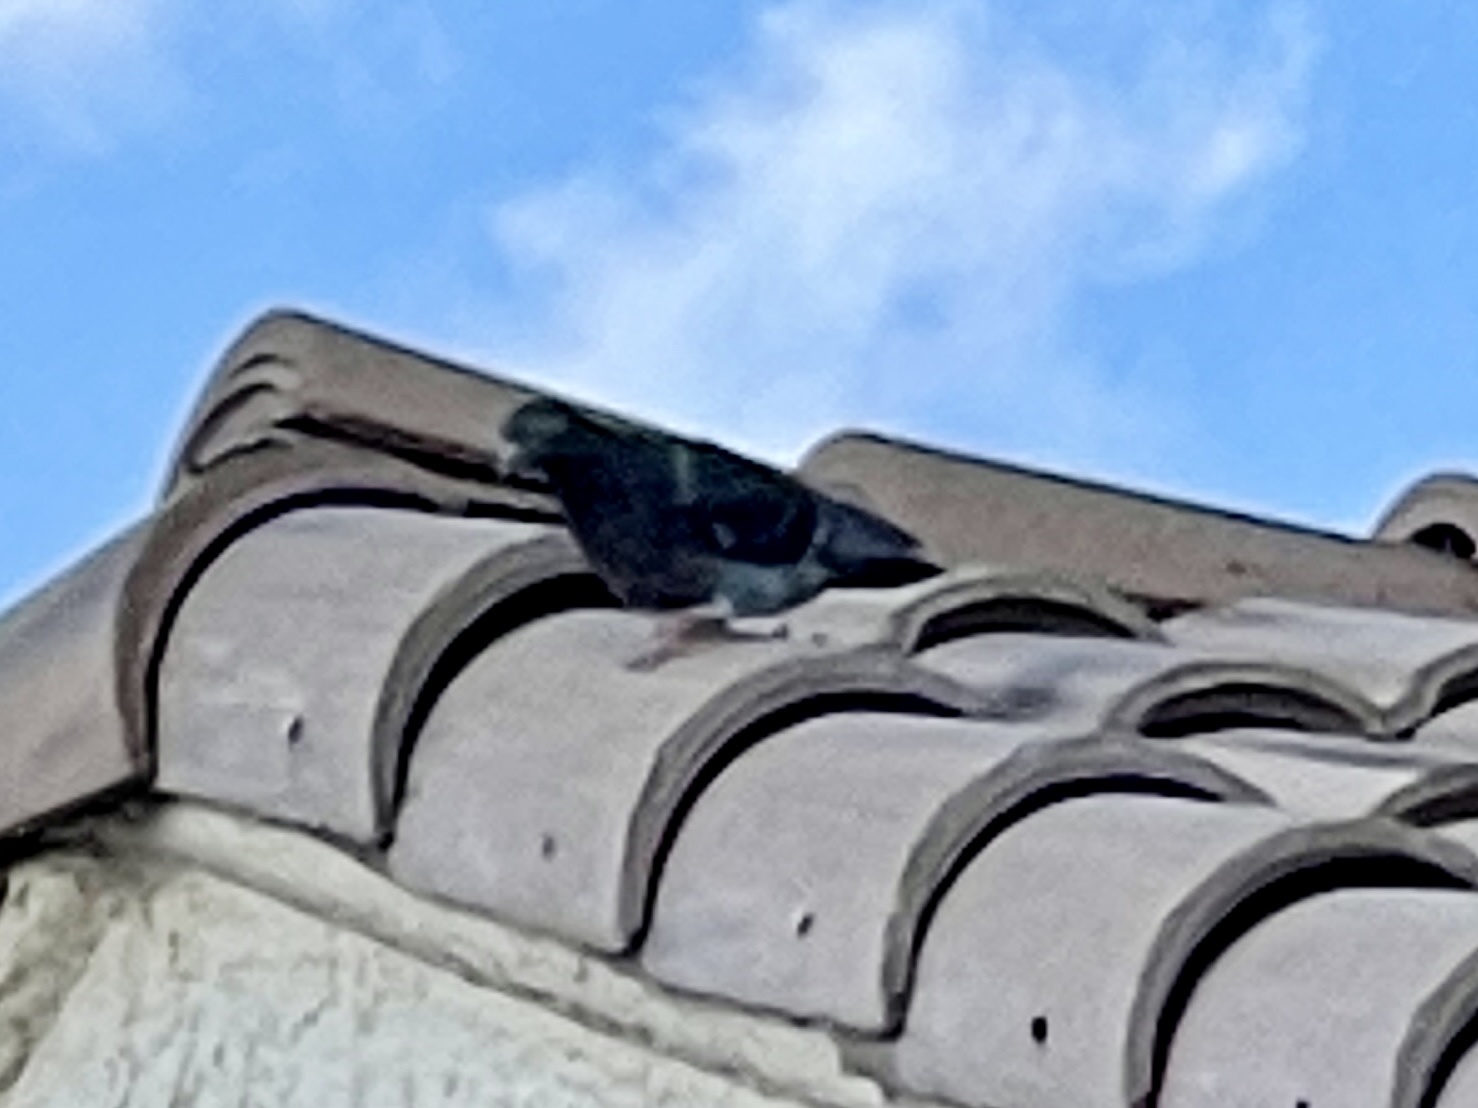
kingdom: Animalia
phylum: Chordata
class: Aves
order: Columbiformes
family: Columbidae
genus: Columba
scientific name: Columba livia
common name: Rock pigeon
